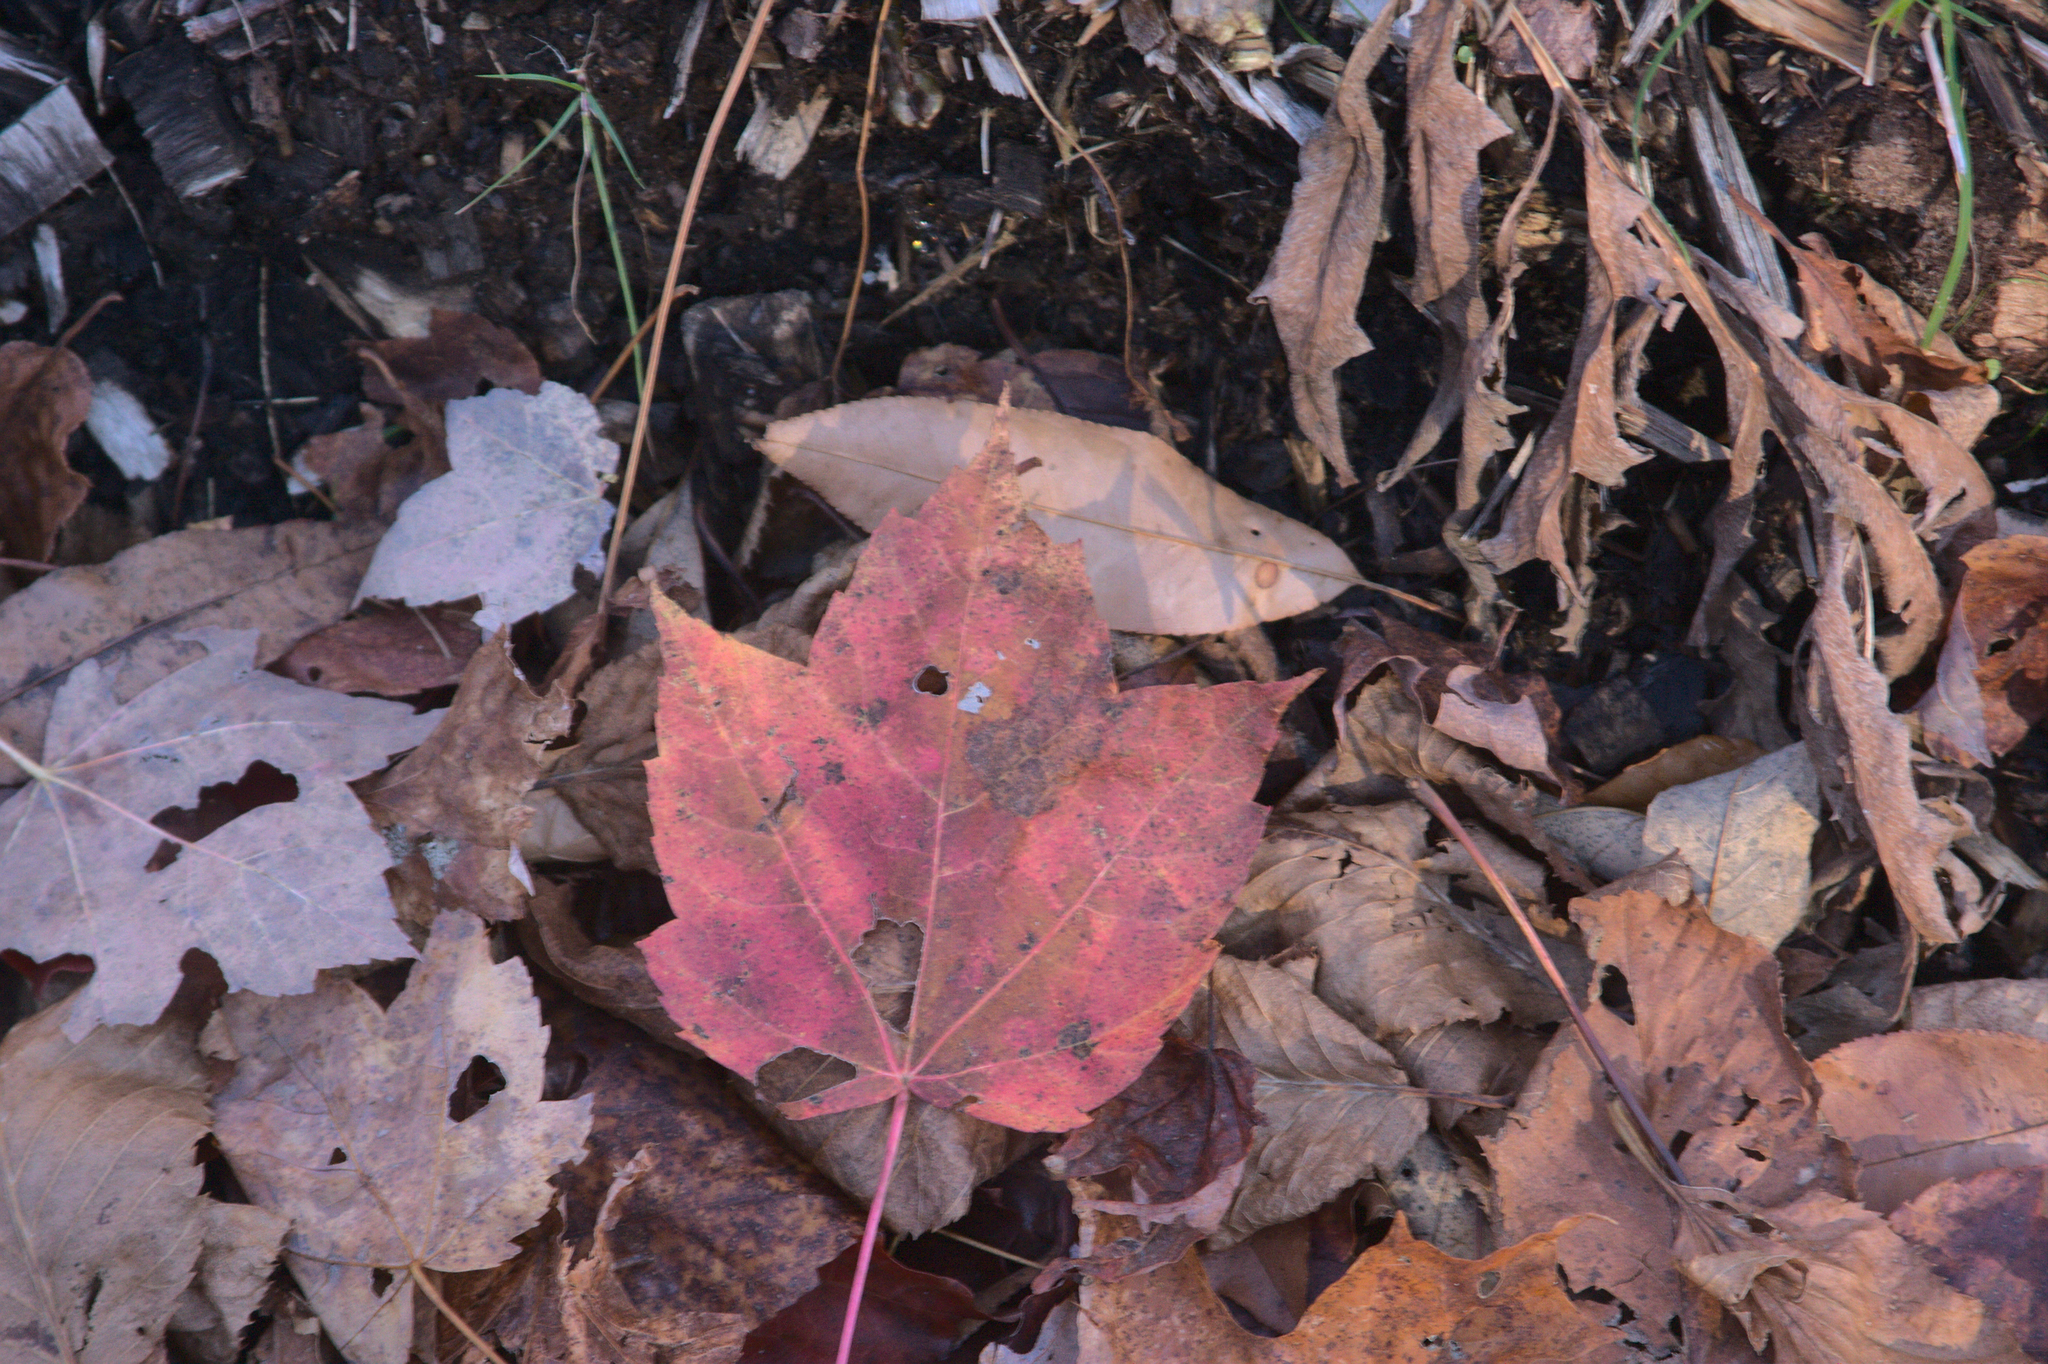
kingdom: Plantae
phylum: Tracheophyta
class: Magnoliopsida
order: Sapindales
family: Sapindaceae
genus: Acer
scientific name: Acer rubrum
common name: Red maple
